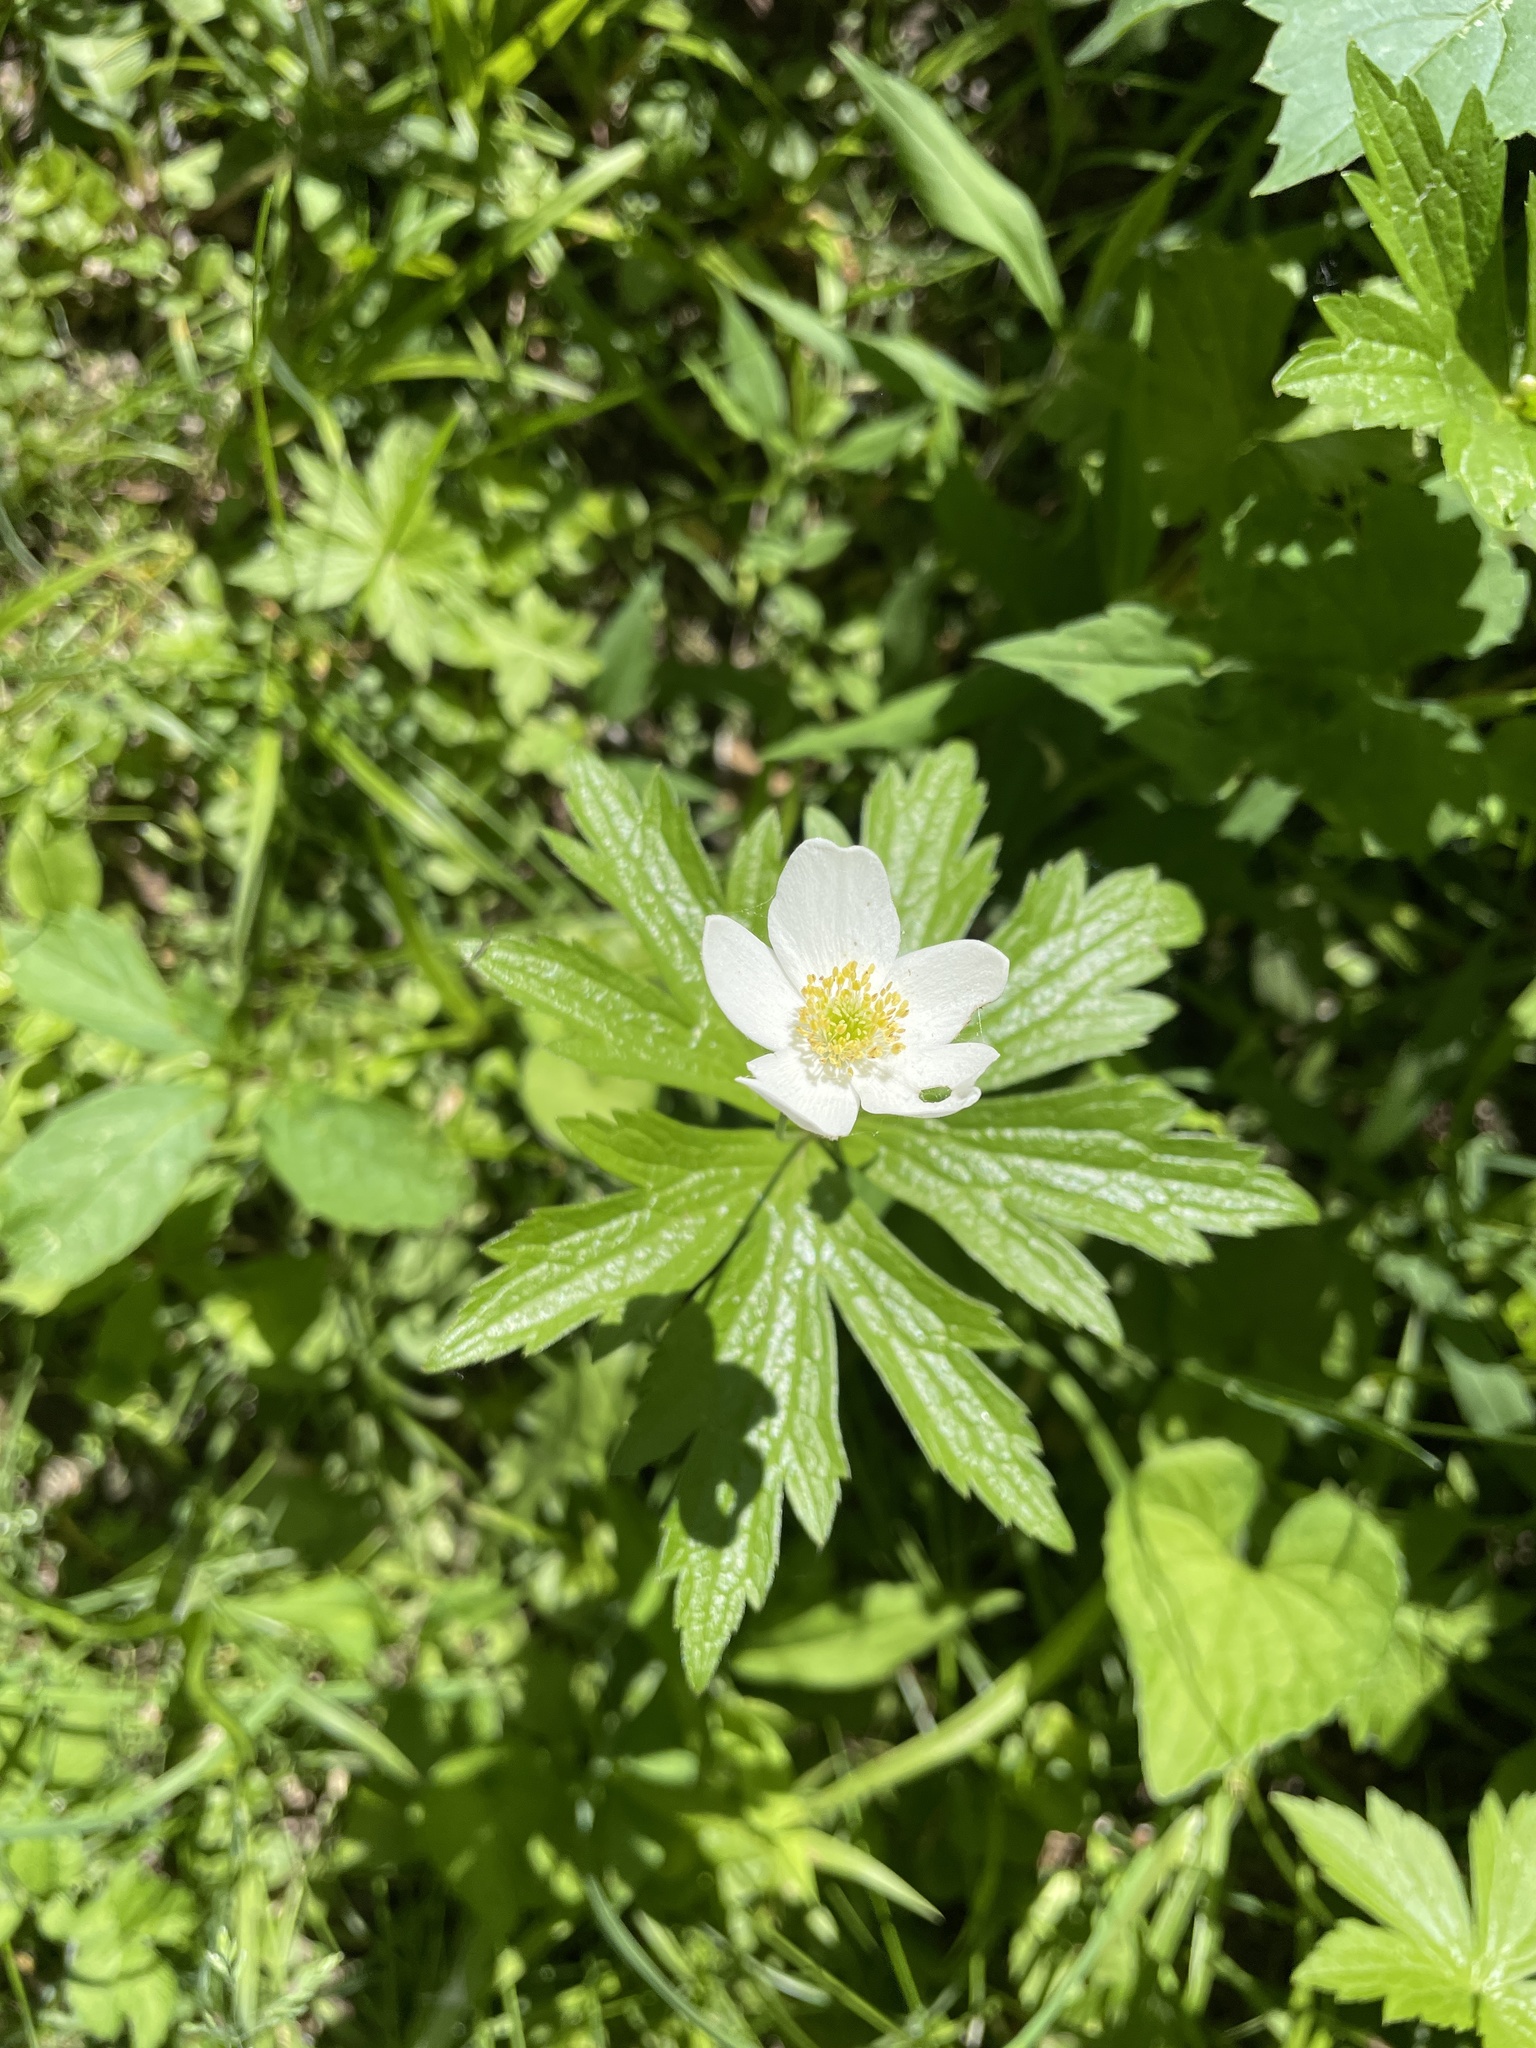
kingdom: Plantae
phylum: Tracheophyta
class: Magnoliopsida
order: Ranunculales
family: Ranunculaceae
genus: Anemonastrum
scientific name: Anemonastrum canadense
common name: Canada anemone
